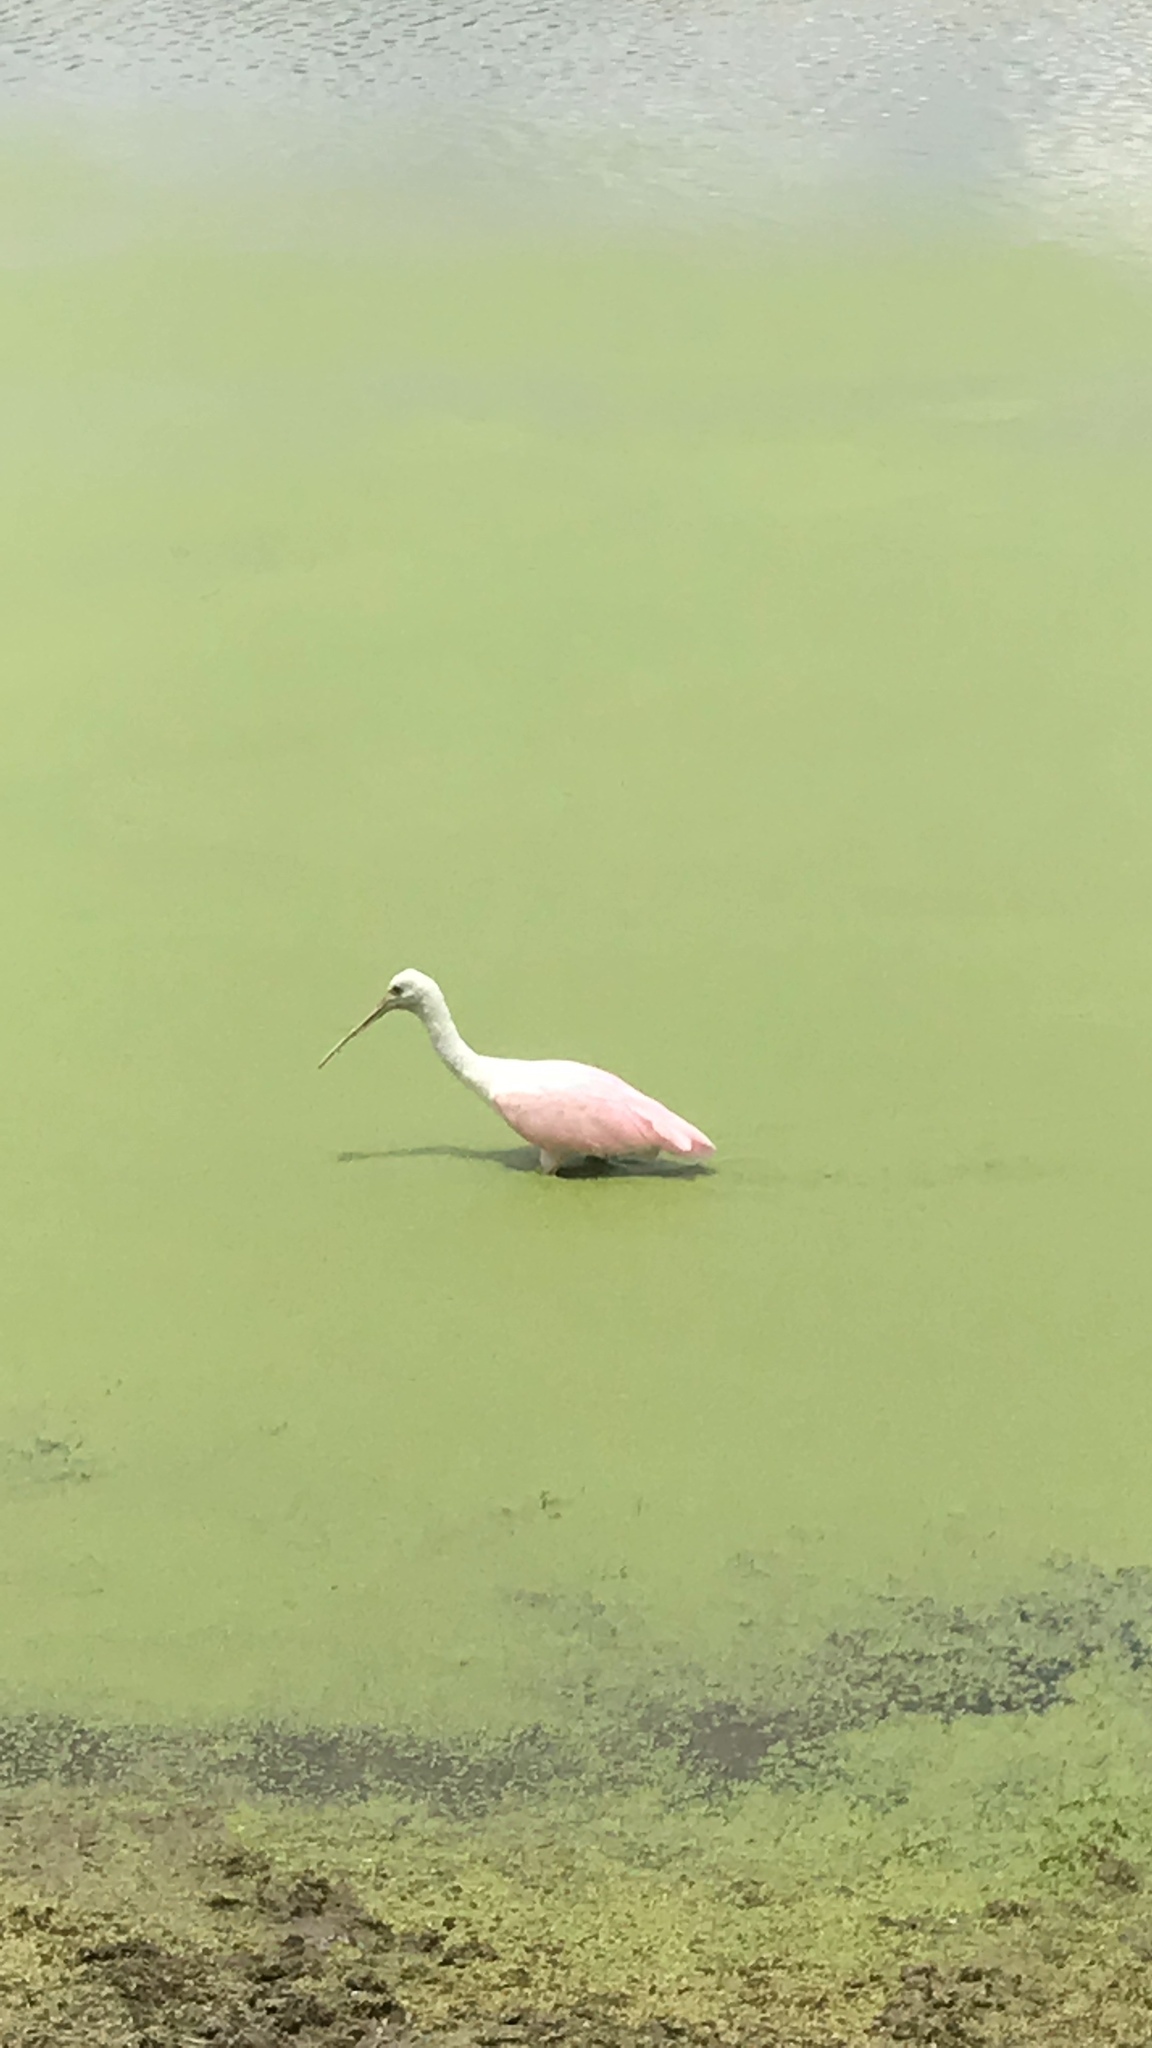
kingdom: Animalia
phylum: Chordata
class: Aves
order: Pelecaniformes
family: Threskiornithidae
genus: Platalea
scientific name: Platalea ajaja
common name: Roseate spoonbill
